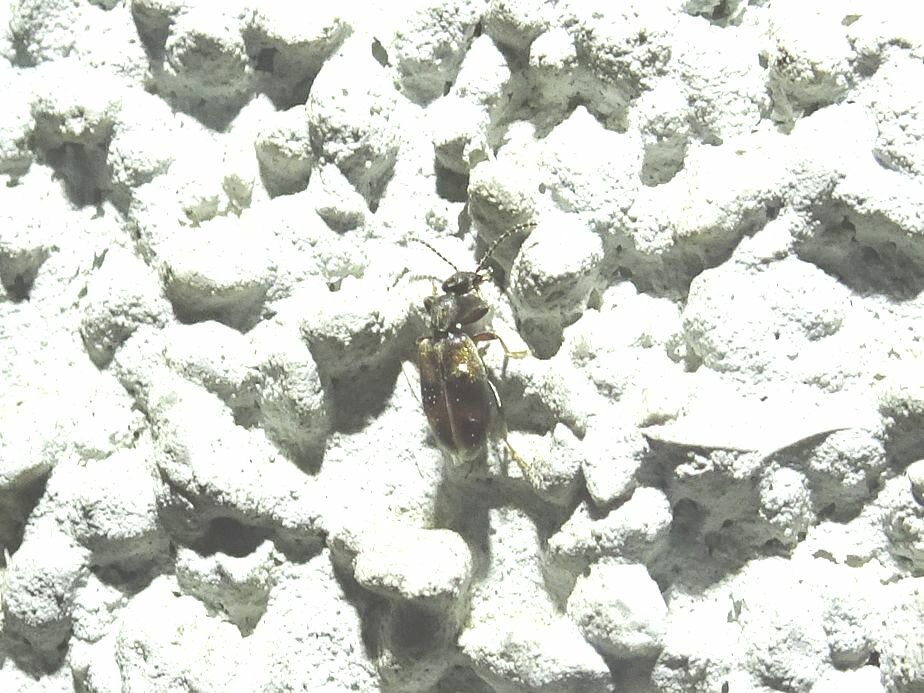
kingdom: Animalia
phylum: Arthropoda
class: Insecta
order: Coleoptera
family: Anthicidae
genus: Anthicus
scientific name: Anthicus antherinus
